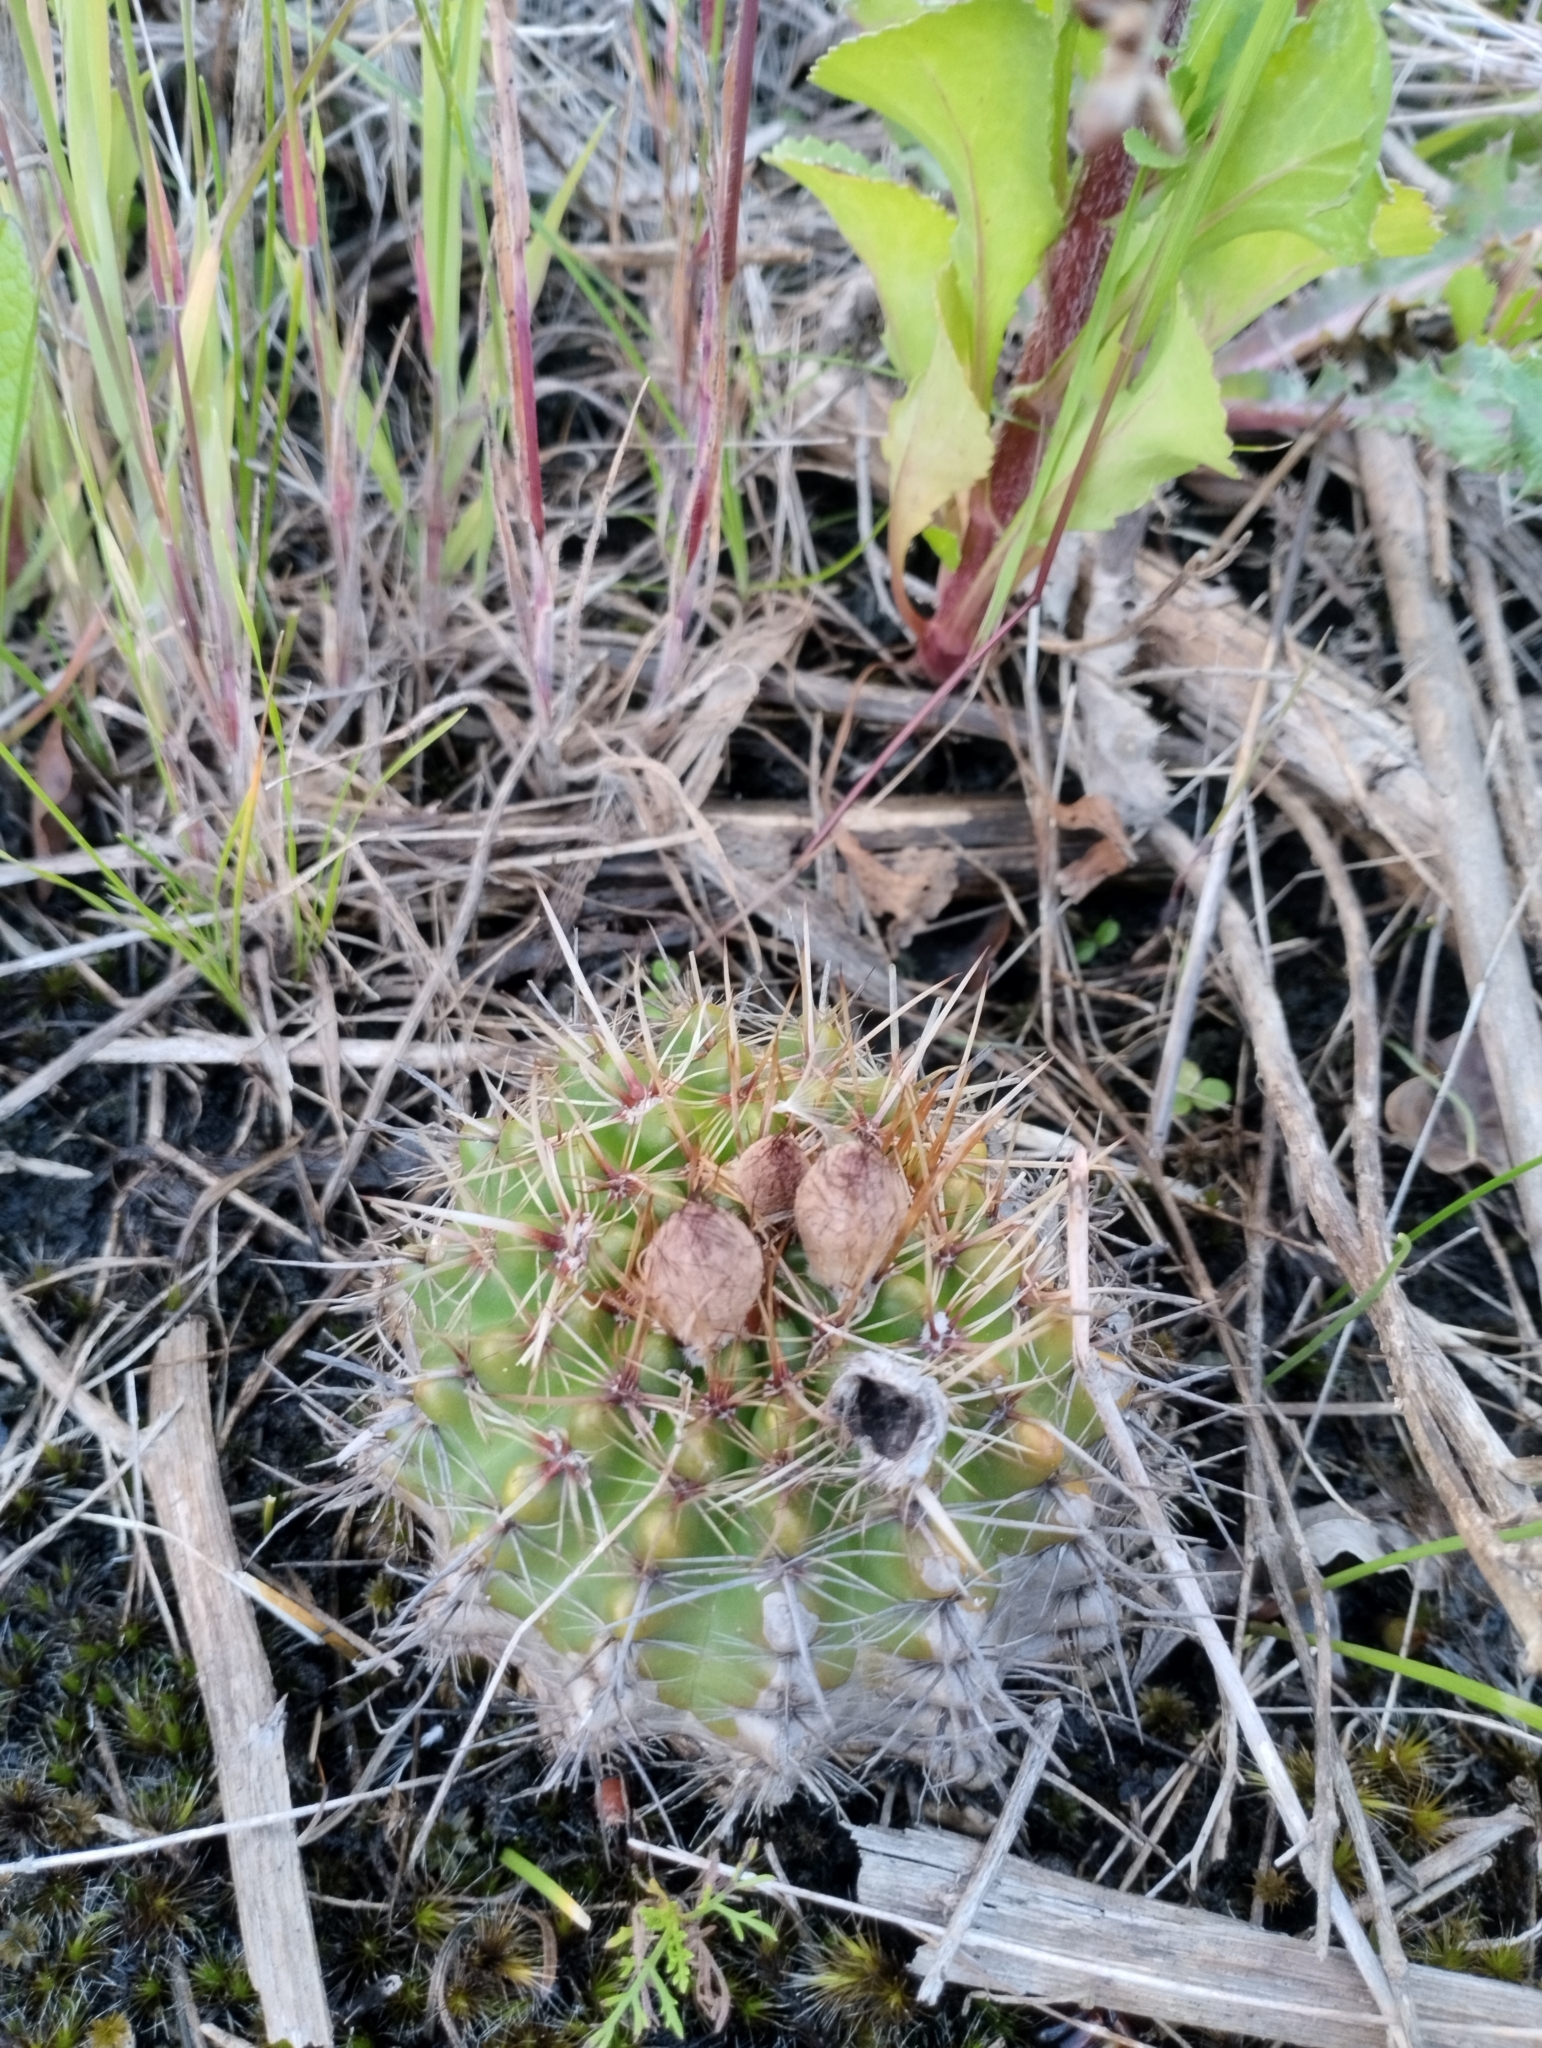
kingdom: Plantae
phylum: Tracheophyta
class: Magnoliopsida
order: Caryophyllales
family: Cactaceae
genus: Parodia
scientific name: Parodia mammulosa
